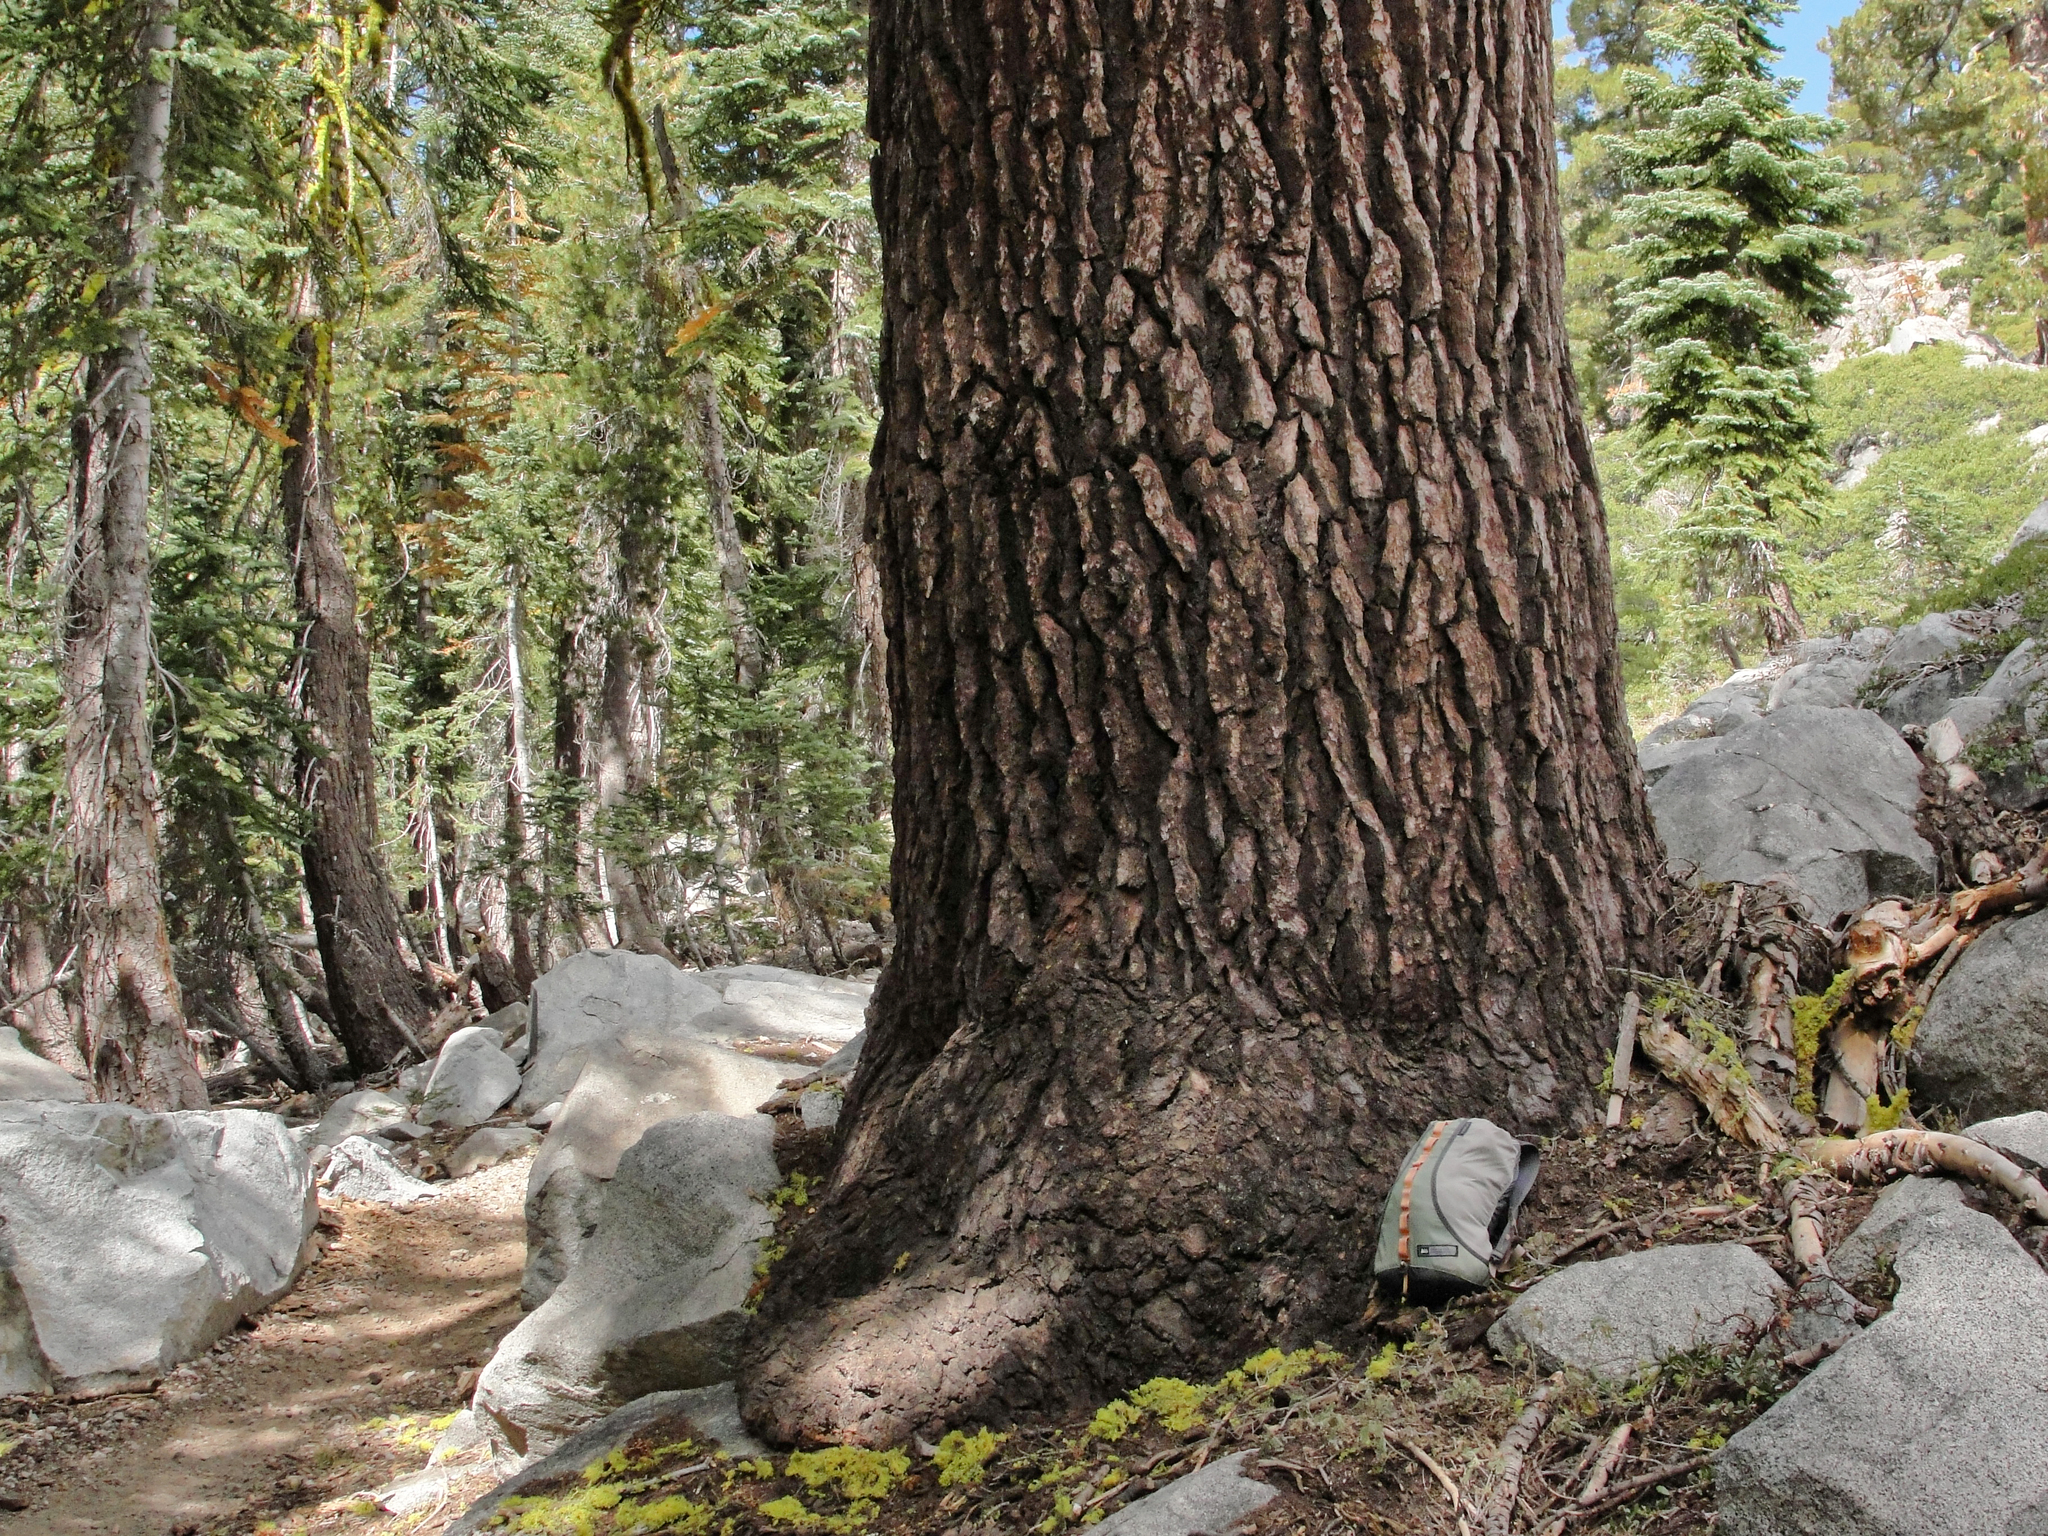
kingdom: Plantae
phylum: Tracheophyta
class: Pinopsida
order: Pinales
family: Pinaceae
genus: Abies
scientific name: Abies magnifica bis
